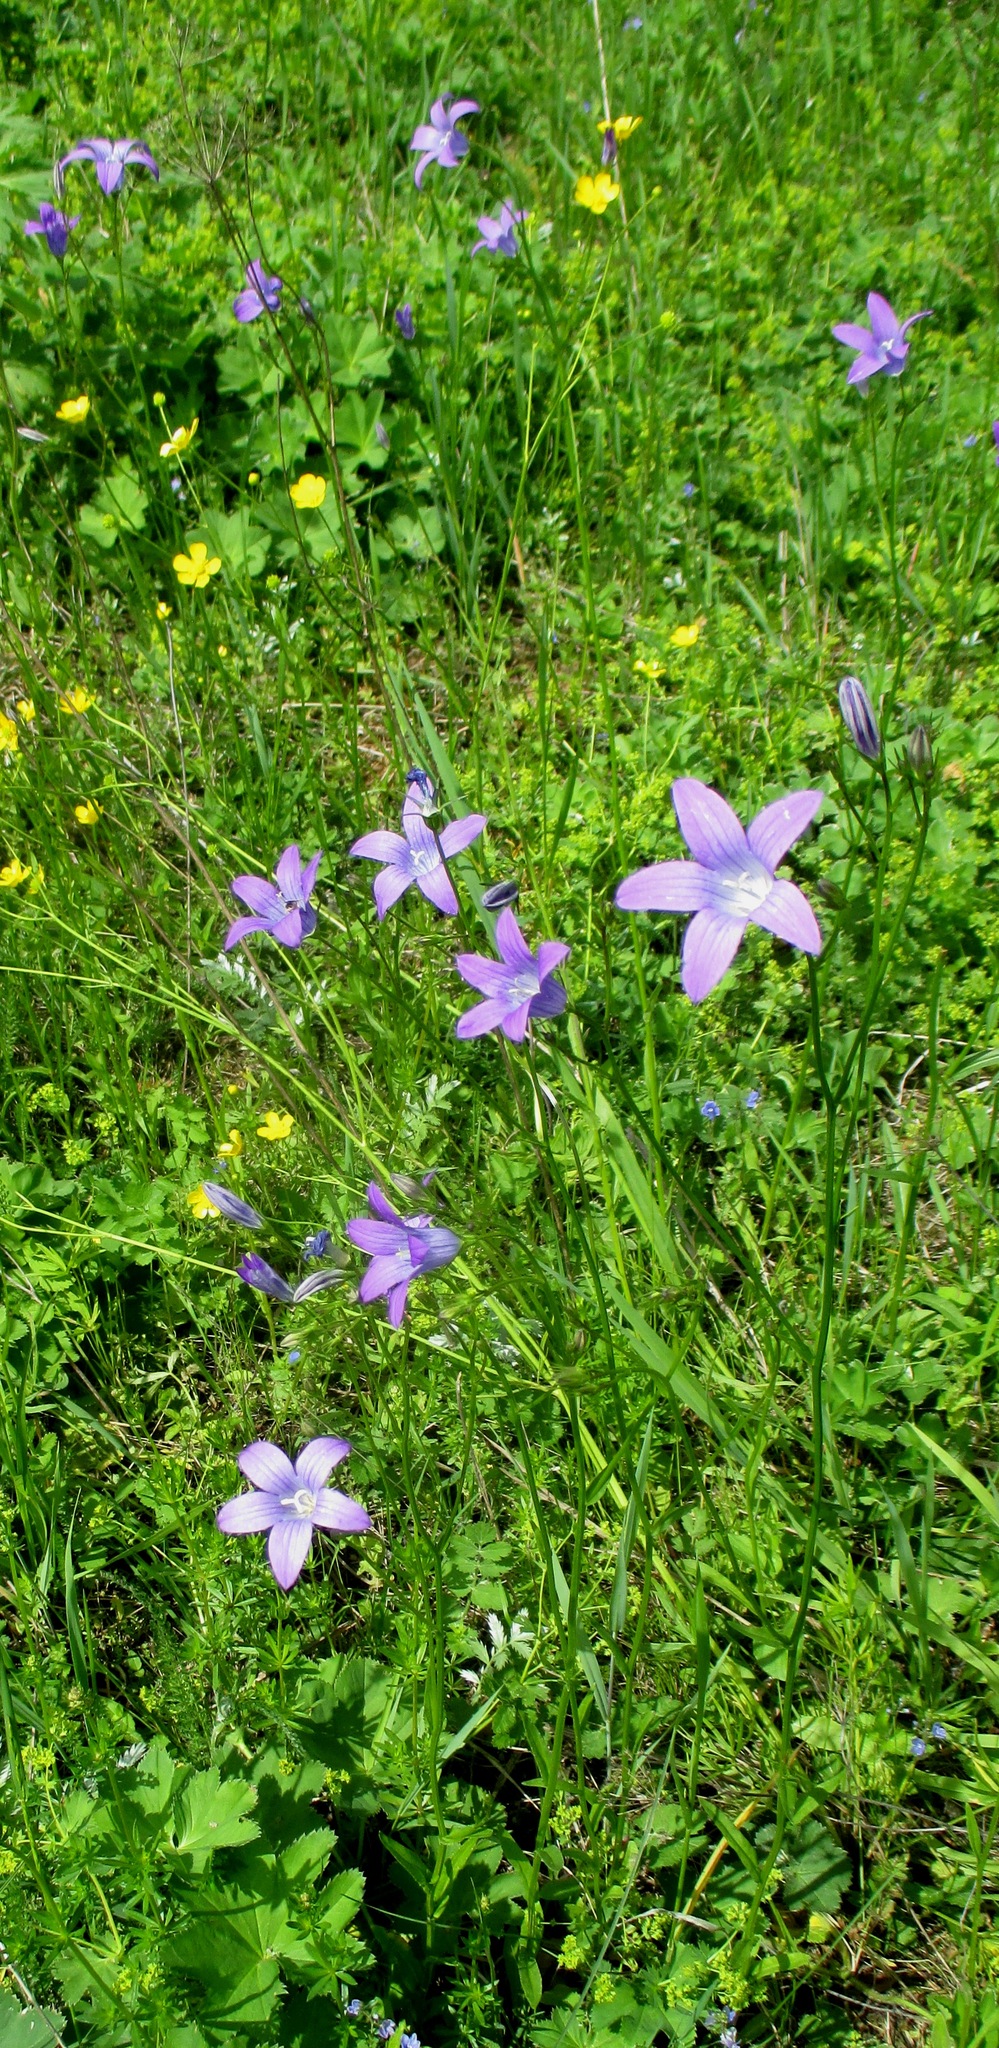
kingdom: Plantae
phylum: Tracheophyta
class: Magnoliopsida
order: Asterales
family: Campanulaceae
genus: Campanula
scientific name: Campanula patula
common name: Spreading bellflower
